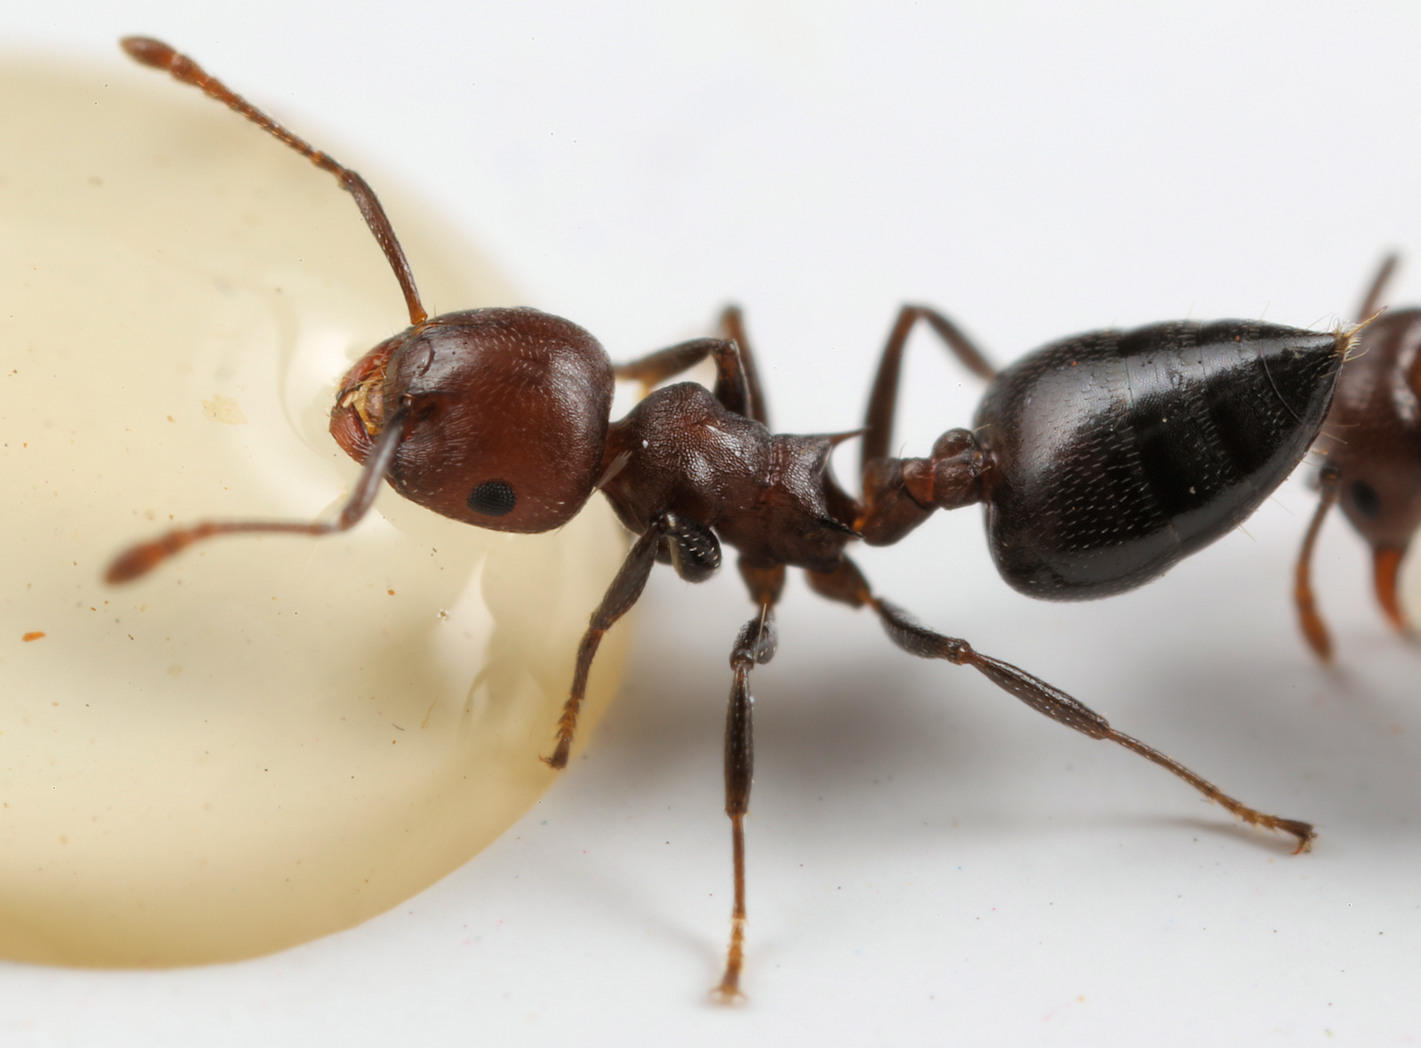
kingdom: Animalia
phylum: Arthropoda
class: Insecta
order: Hymenoptera
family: Formicidae
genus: Crematogaster
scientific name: Crematogaster castanea
